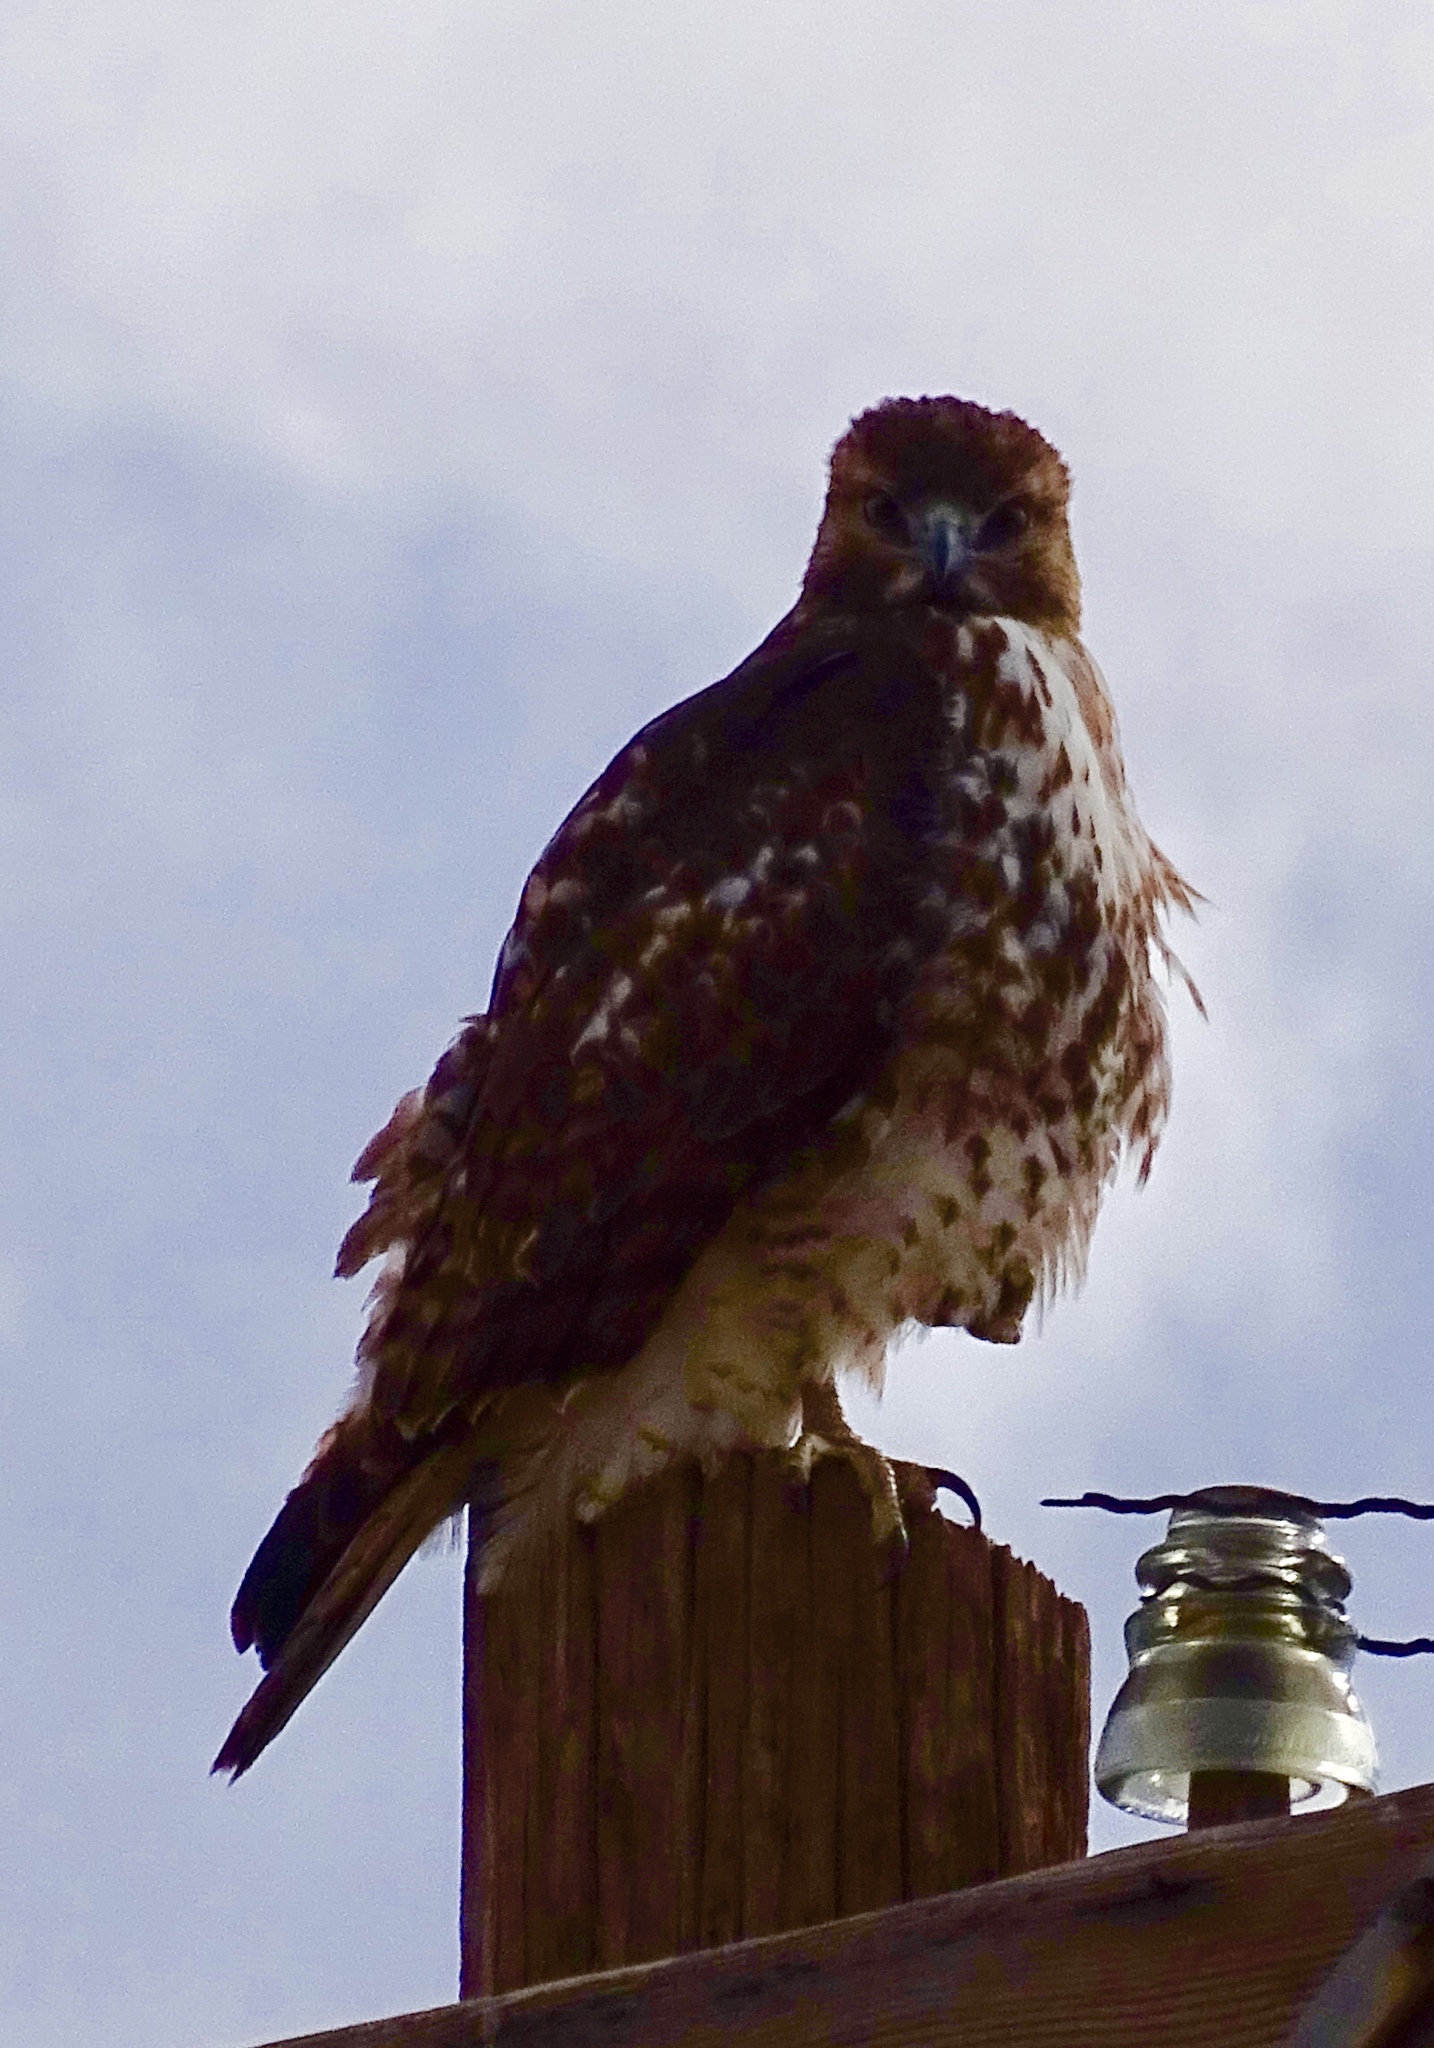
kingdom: Animalia
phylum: Chordata
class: Aves
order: Accipitriformes
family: Accipitridae
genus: Buteo
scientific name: Buteo jamaicensis
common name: Red-tailed hawk
